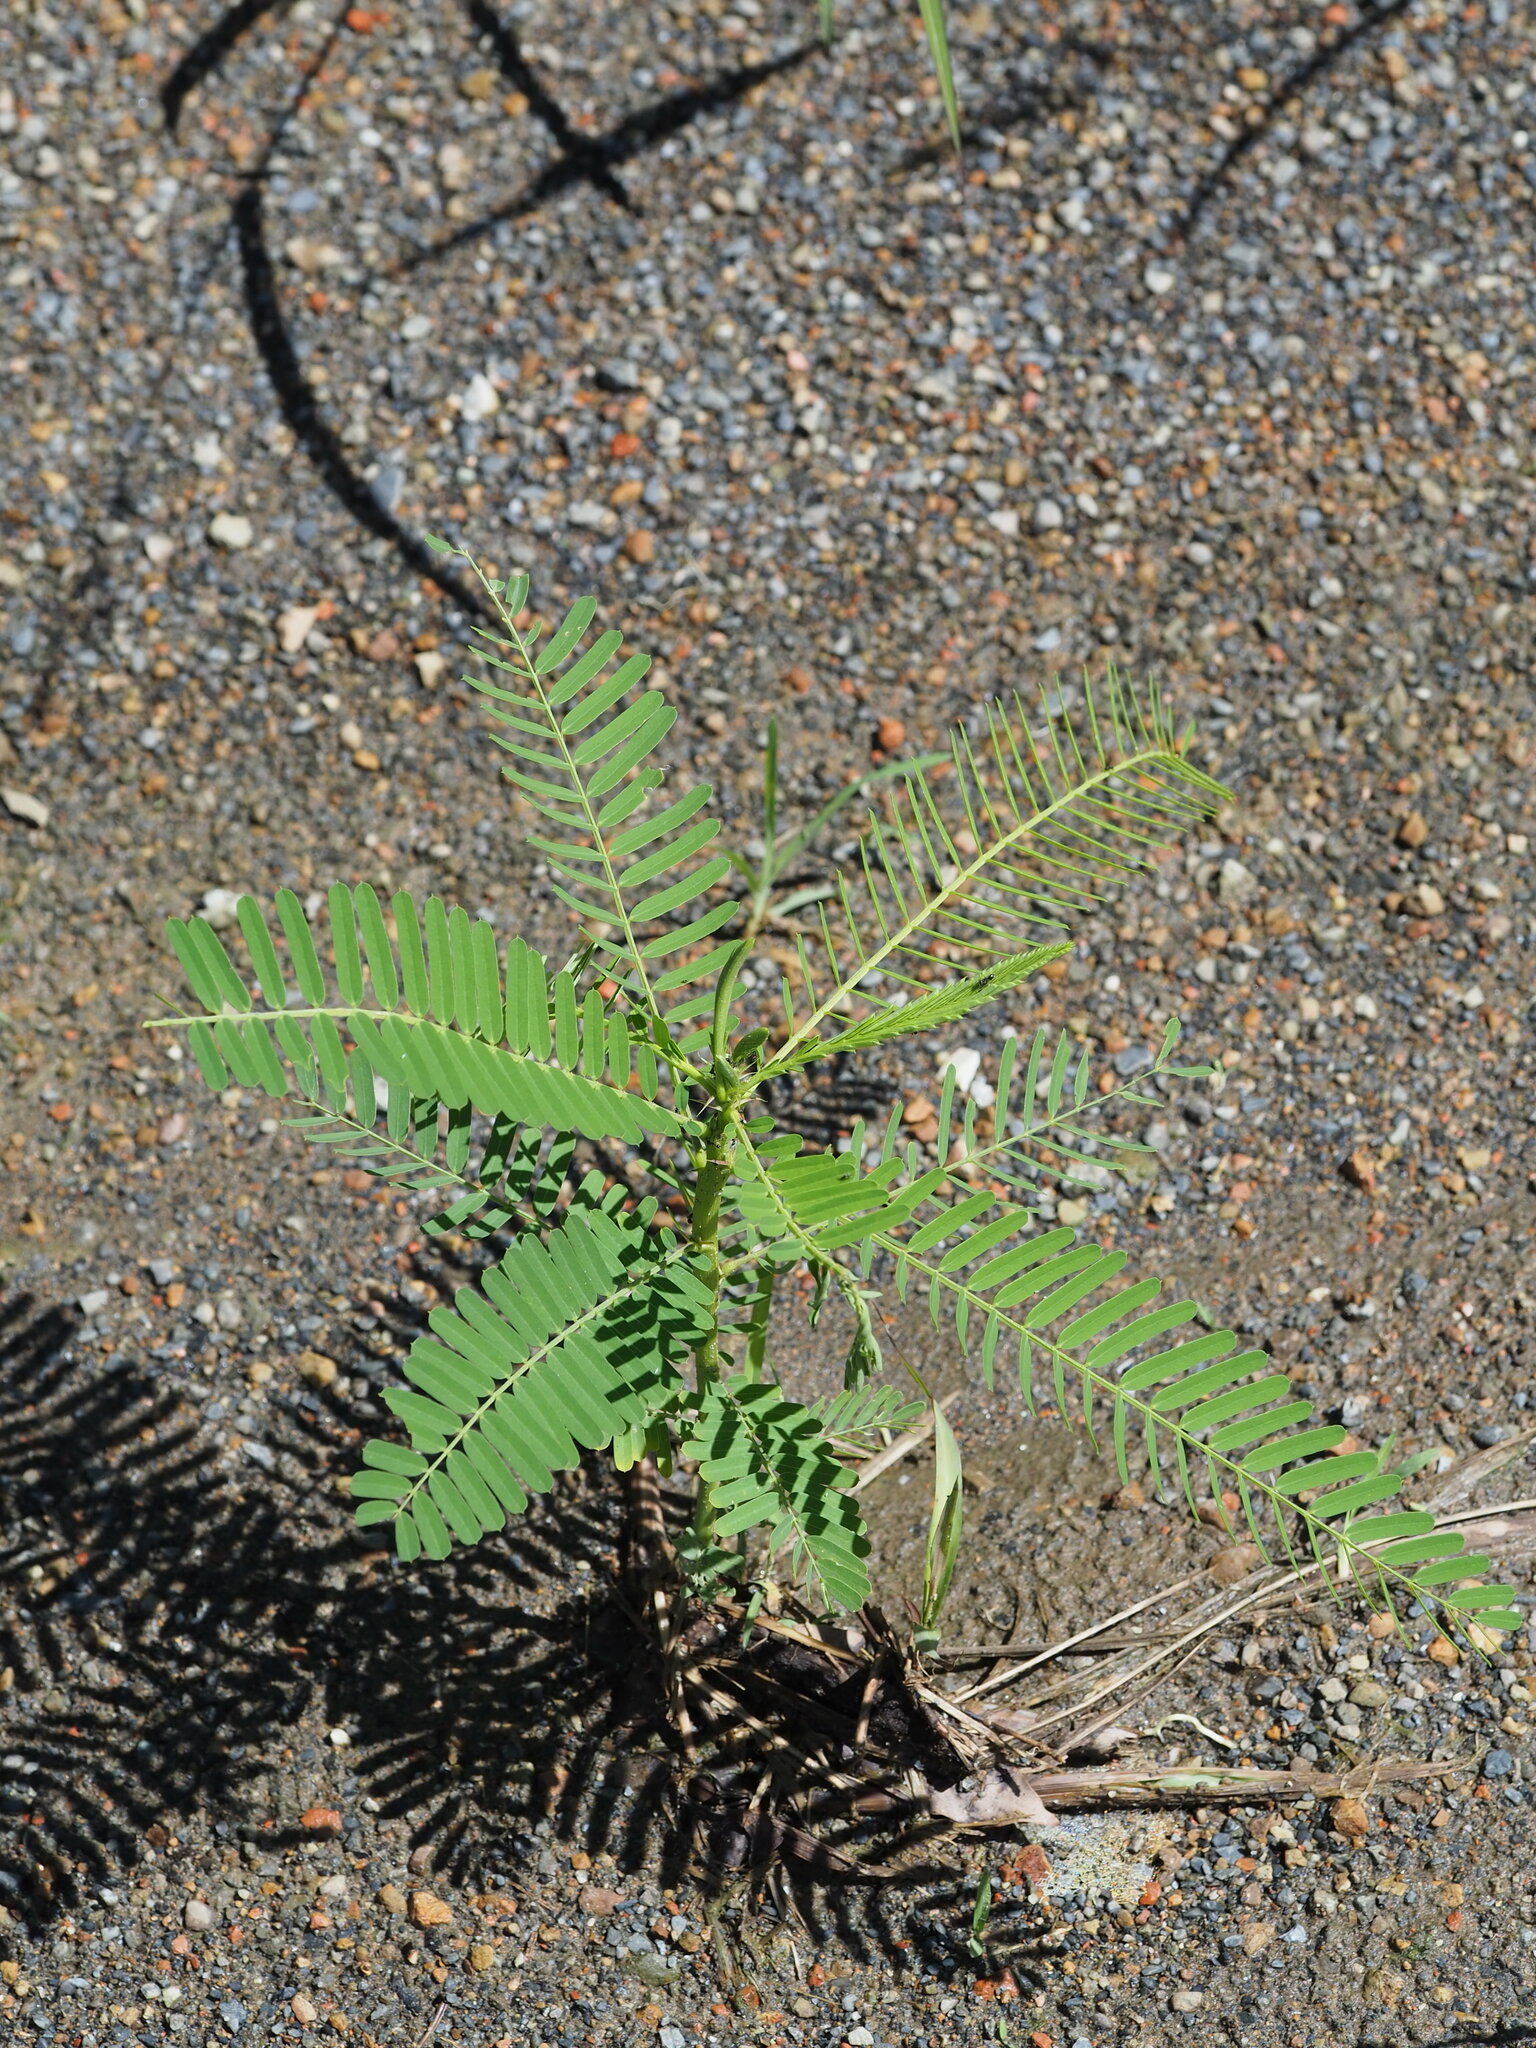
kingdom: Plantae
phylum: Tracheophyta
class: Magnoliopsida
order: Fabales
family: Fabaceae
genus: Sesbania
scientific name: Sesbania cannabina
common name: Canicha
